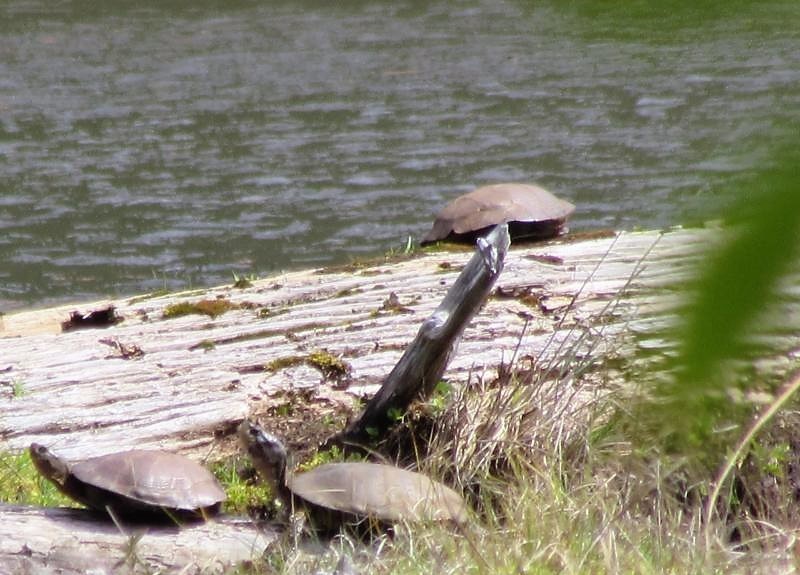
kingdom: Animalia
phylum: Chordata
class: Testudines
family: Emydidae
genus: Actinemys
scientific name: Actinemys marmorata
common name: Western pond turtle
